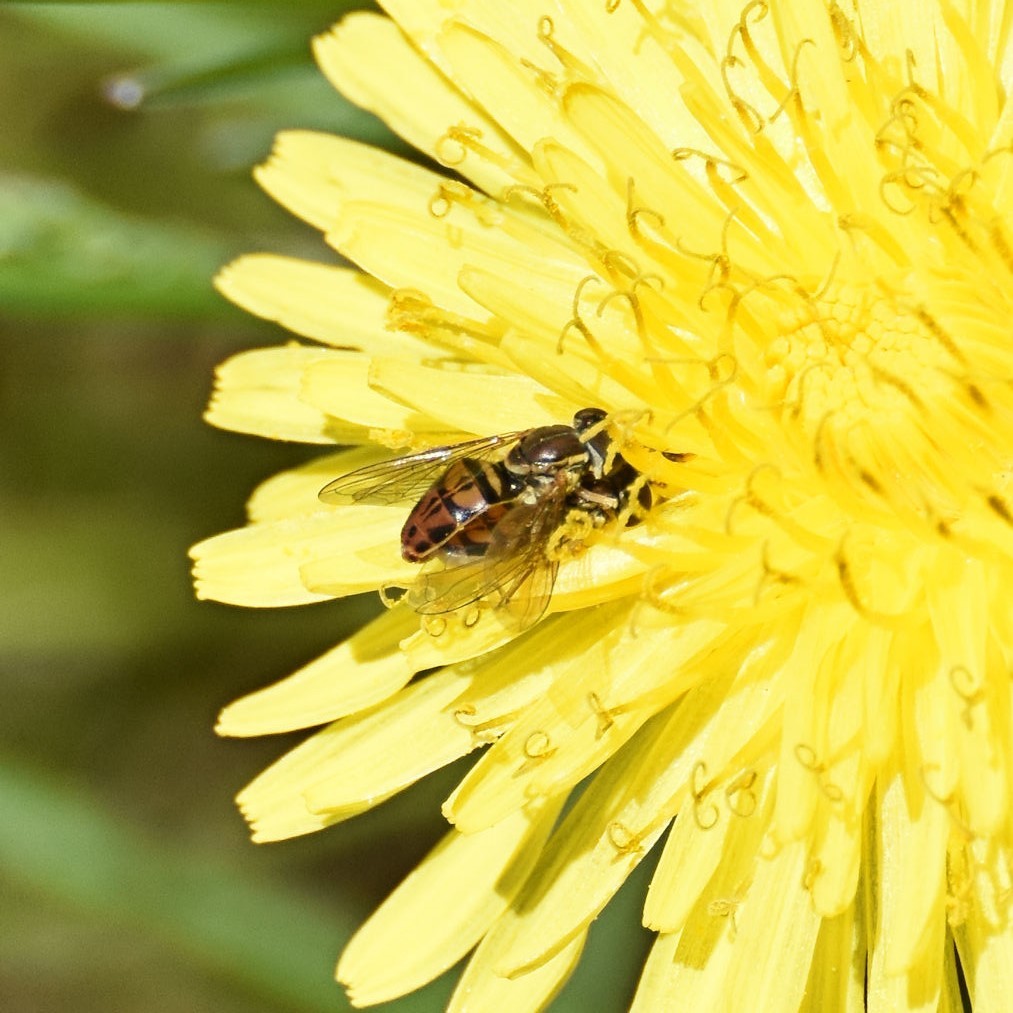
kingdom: Animalia
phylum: Arthropoda
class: Insecta
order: Diptera
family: Syrphidae
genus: Toxomerus
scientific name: Toxomerus marginatus
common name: Syrphid fly
